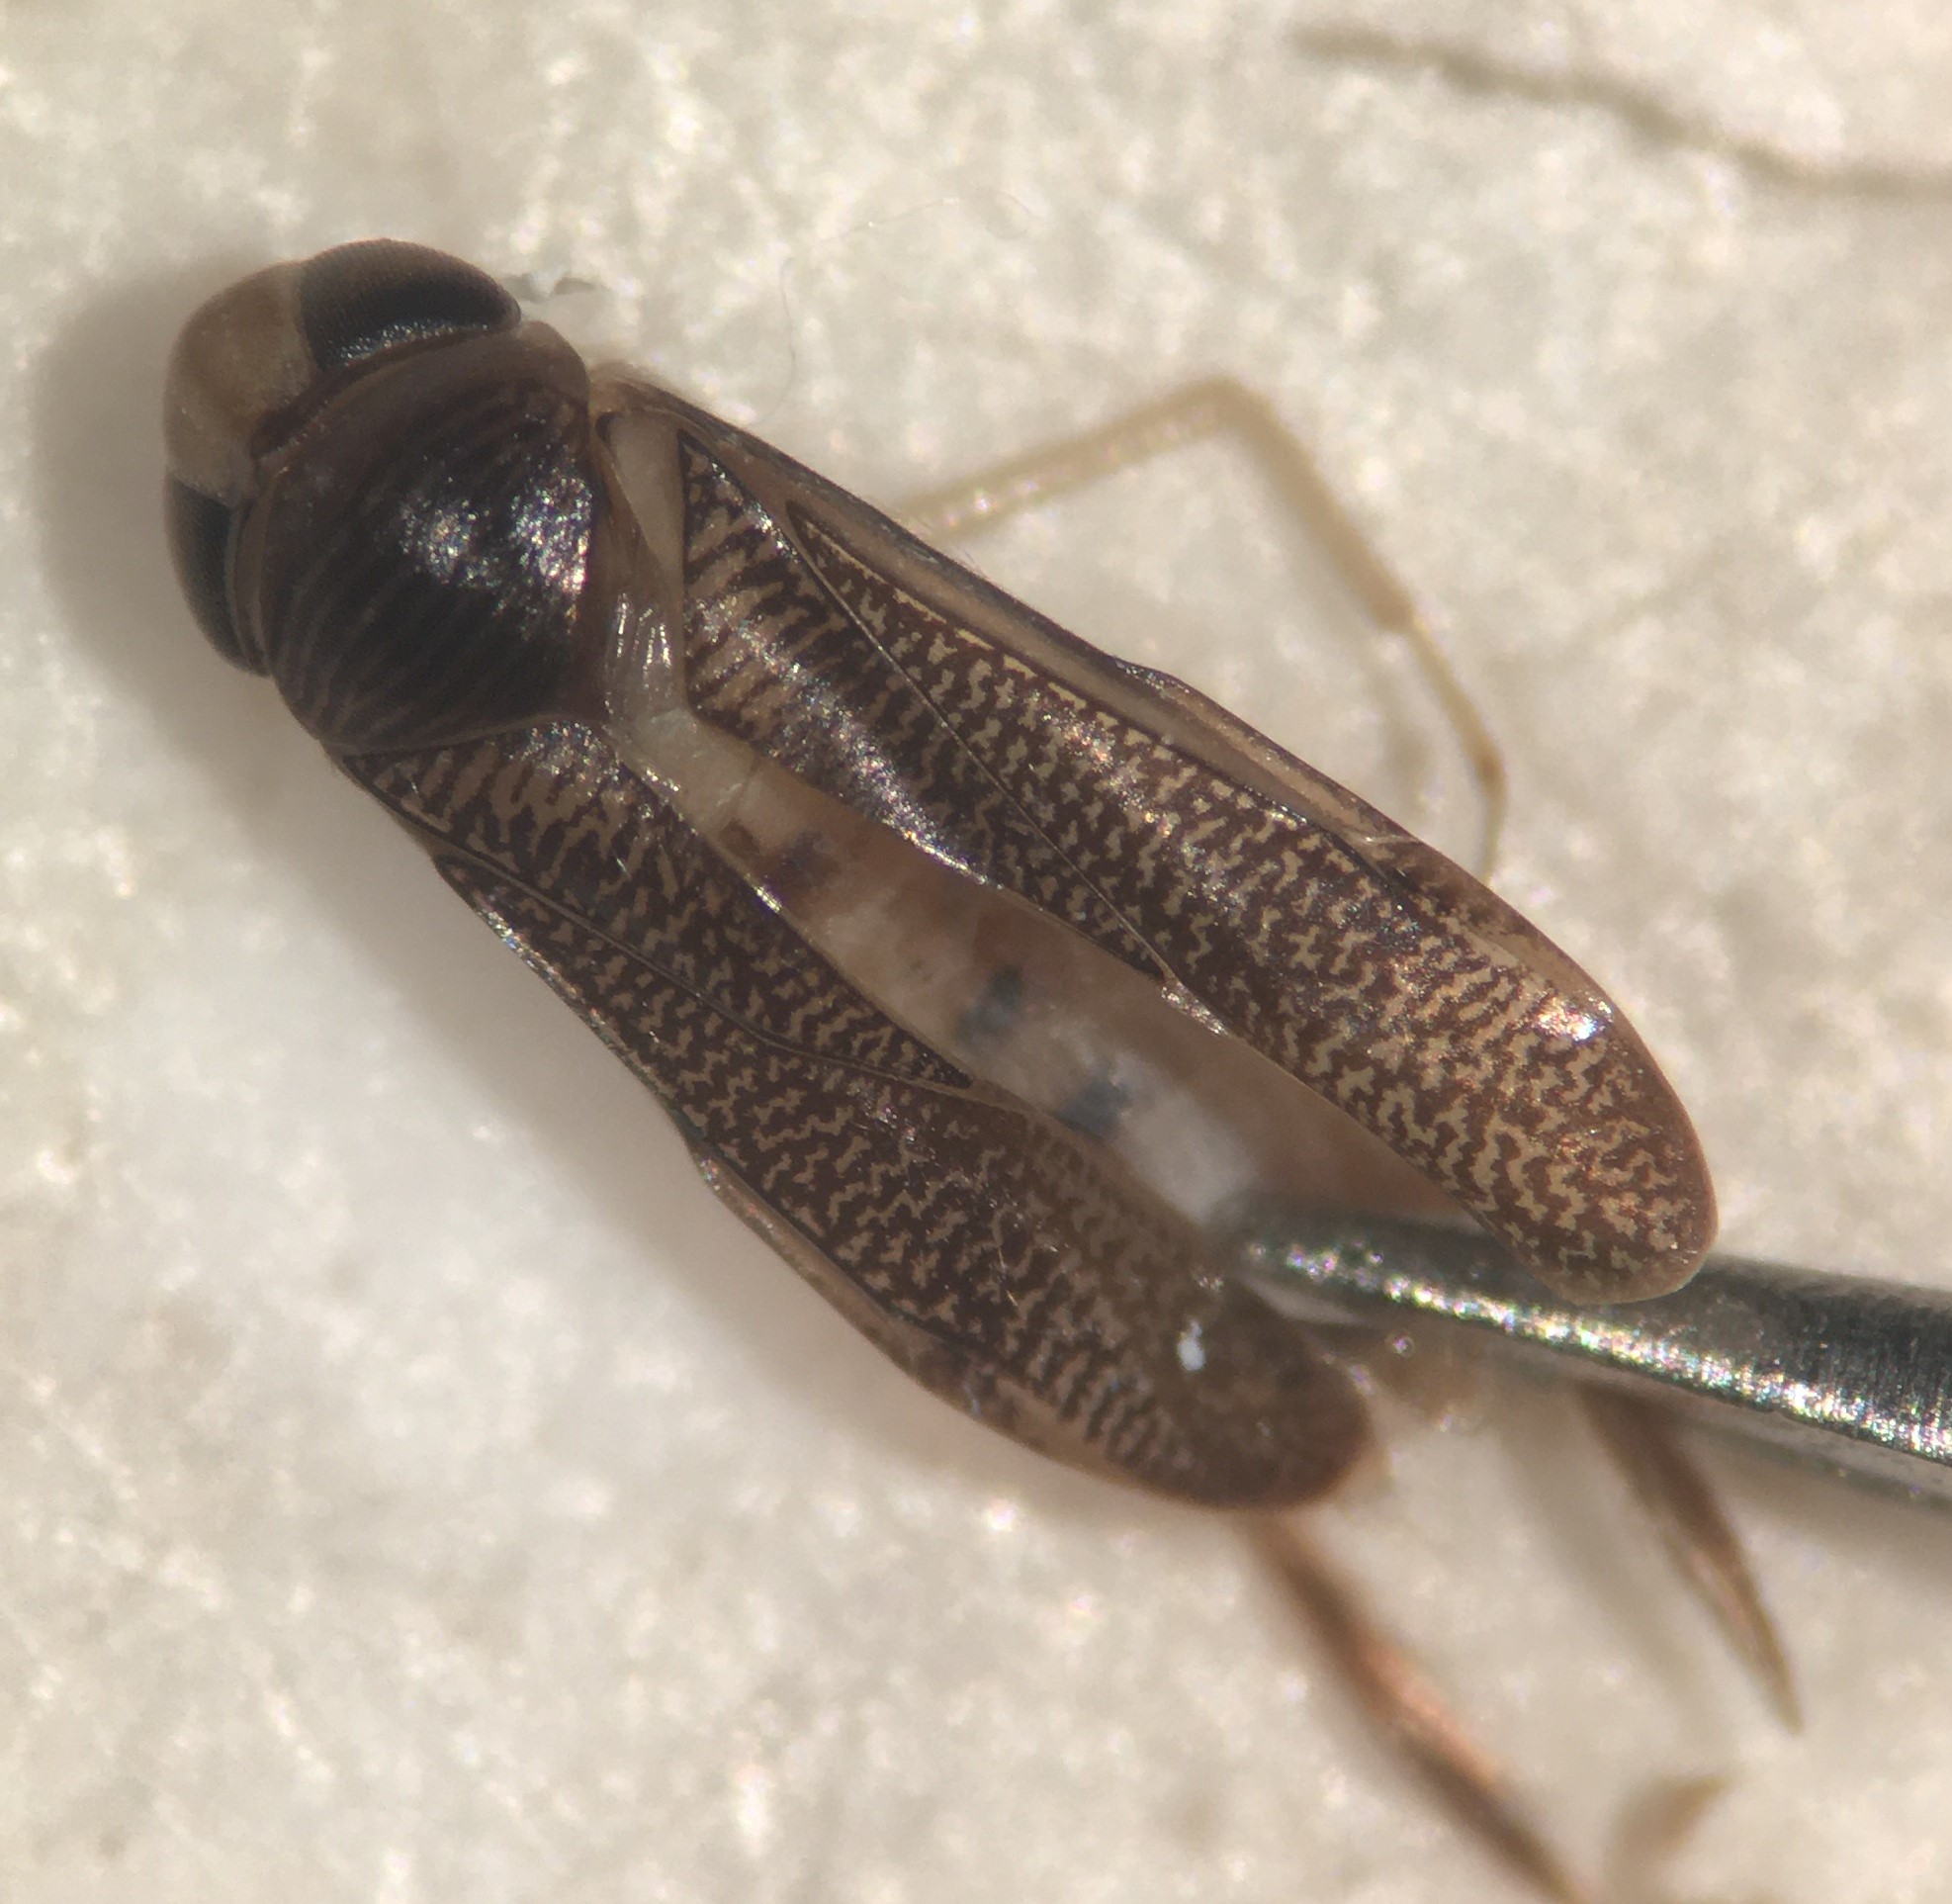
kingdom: Animalia
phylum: Arthropoda
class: Insecta
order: Hemiptera
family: Corixidae
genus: Trichocorixa
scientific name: Trichocorixa verticalis
